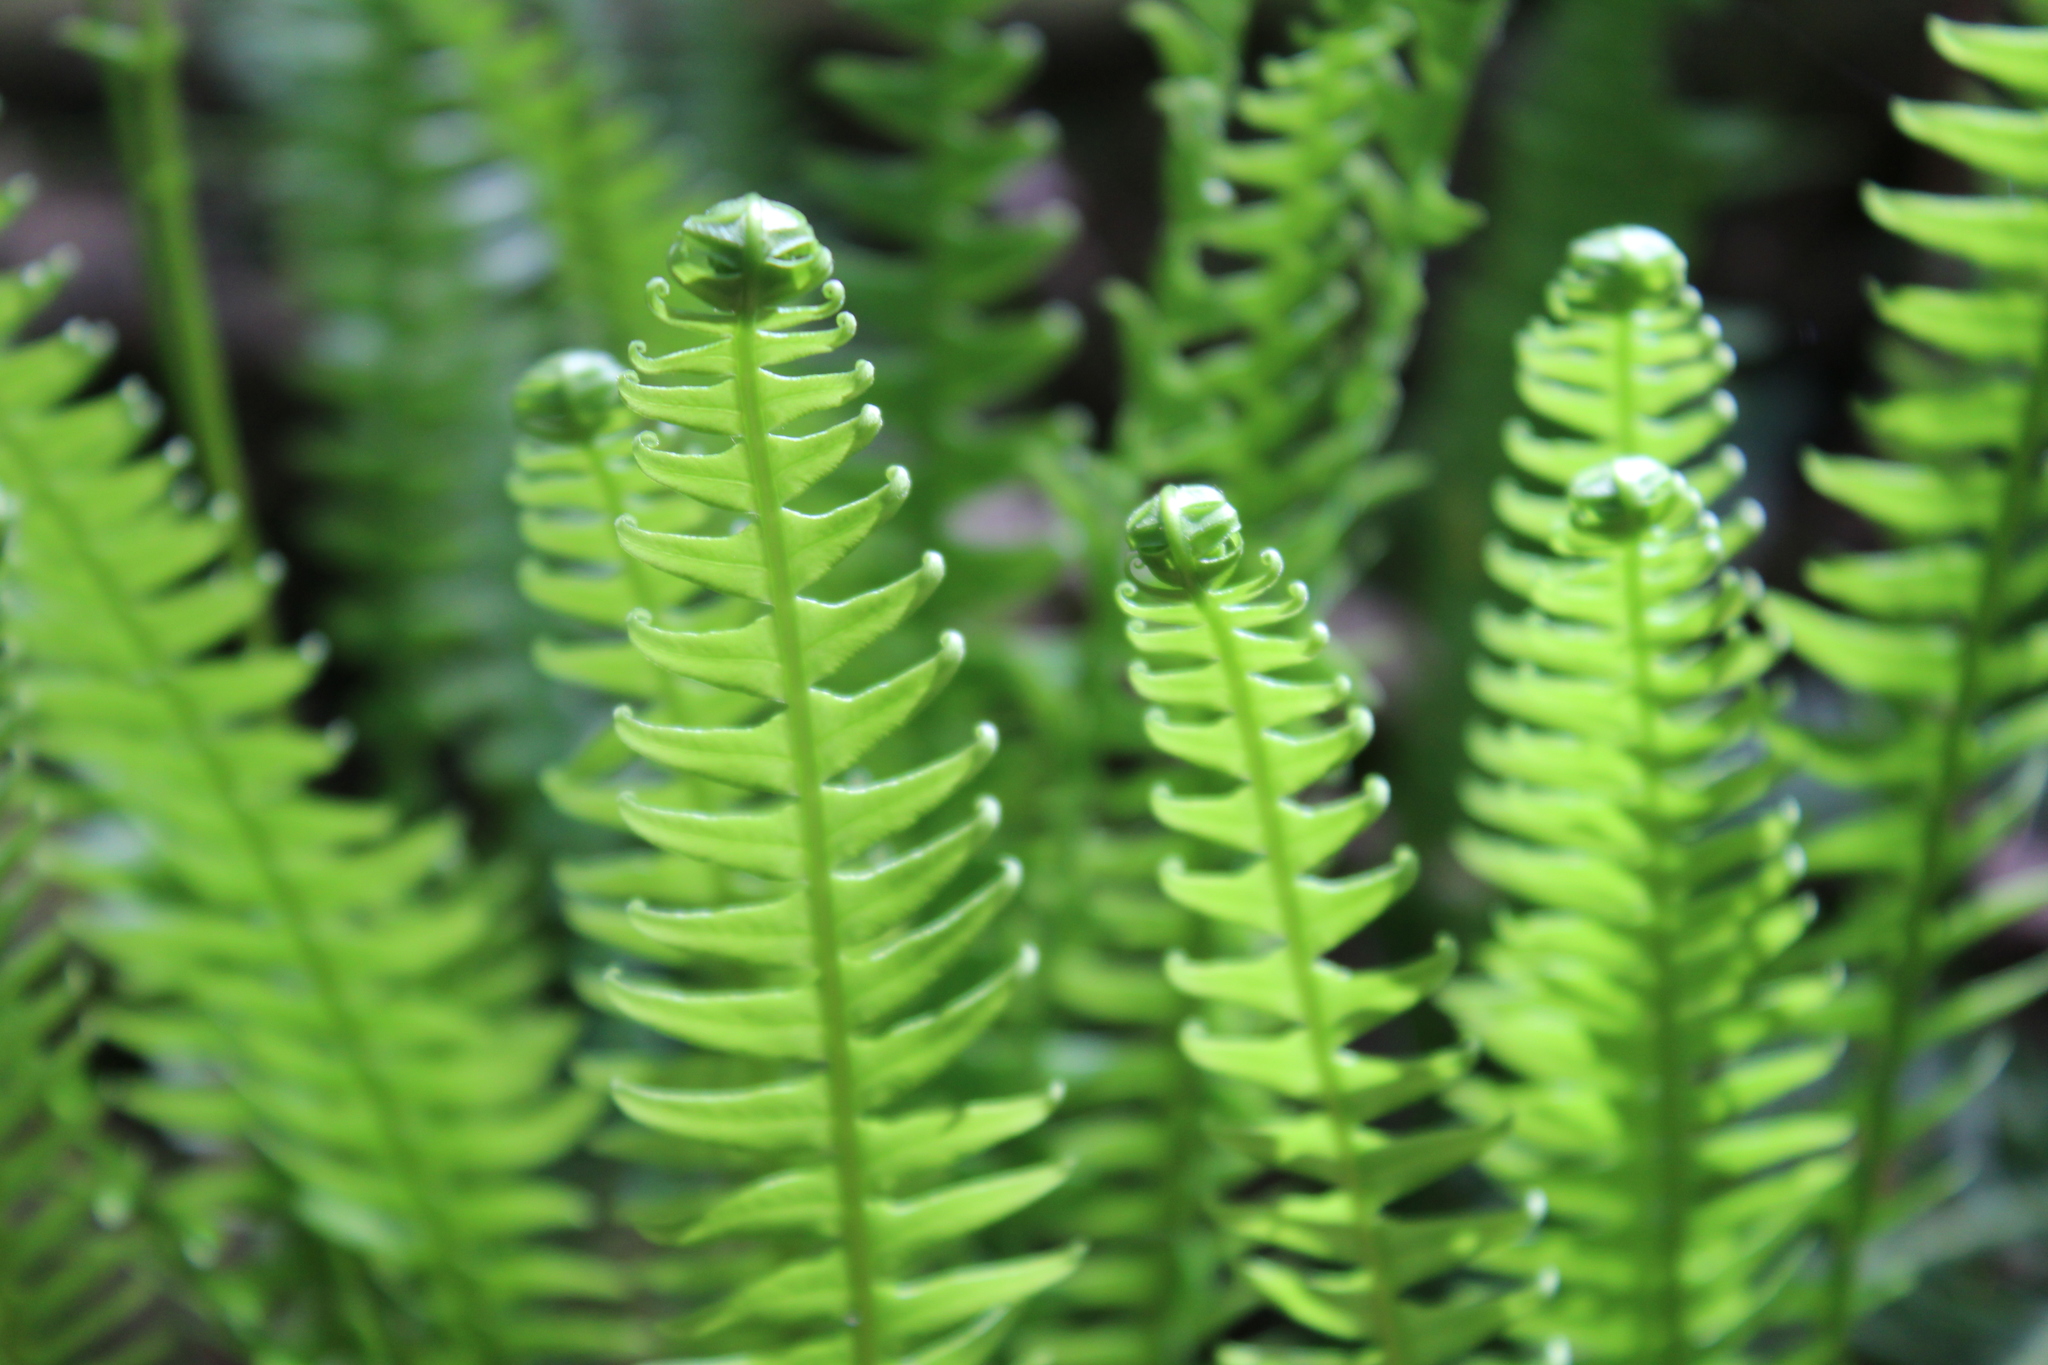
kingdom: Plantae
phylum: Tracheophyta
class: Polypodiopsida
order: Polypodiales
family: Blechnaceae
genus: Struthiopteris
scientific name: Struthiopteris spicant
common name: Deer fern
